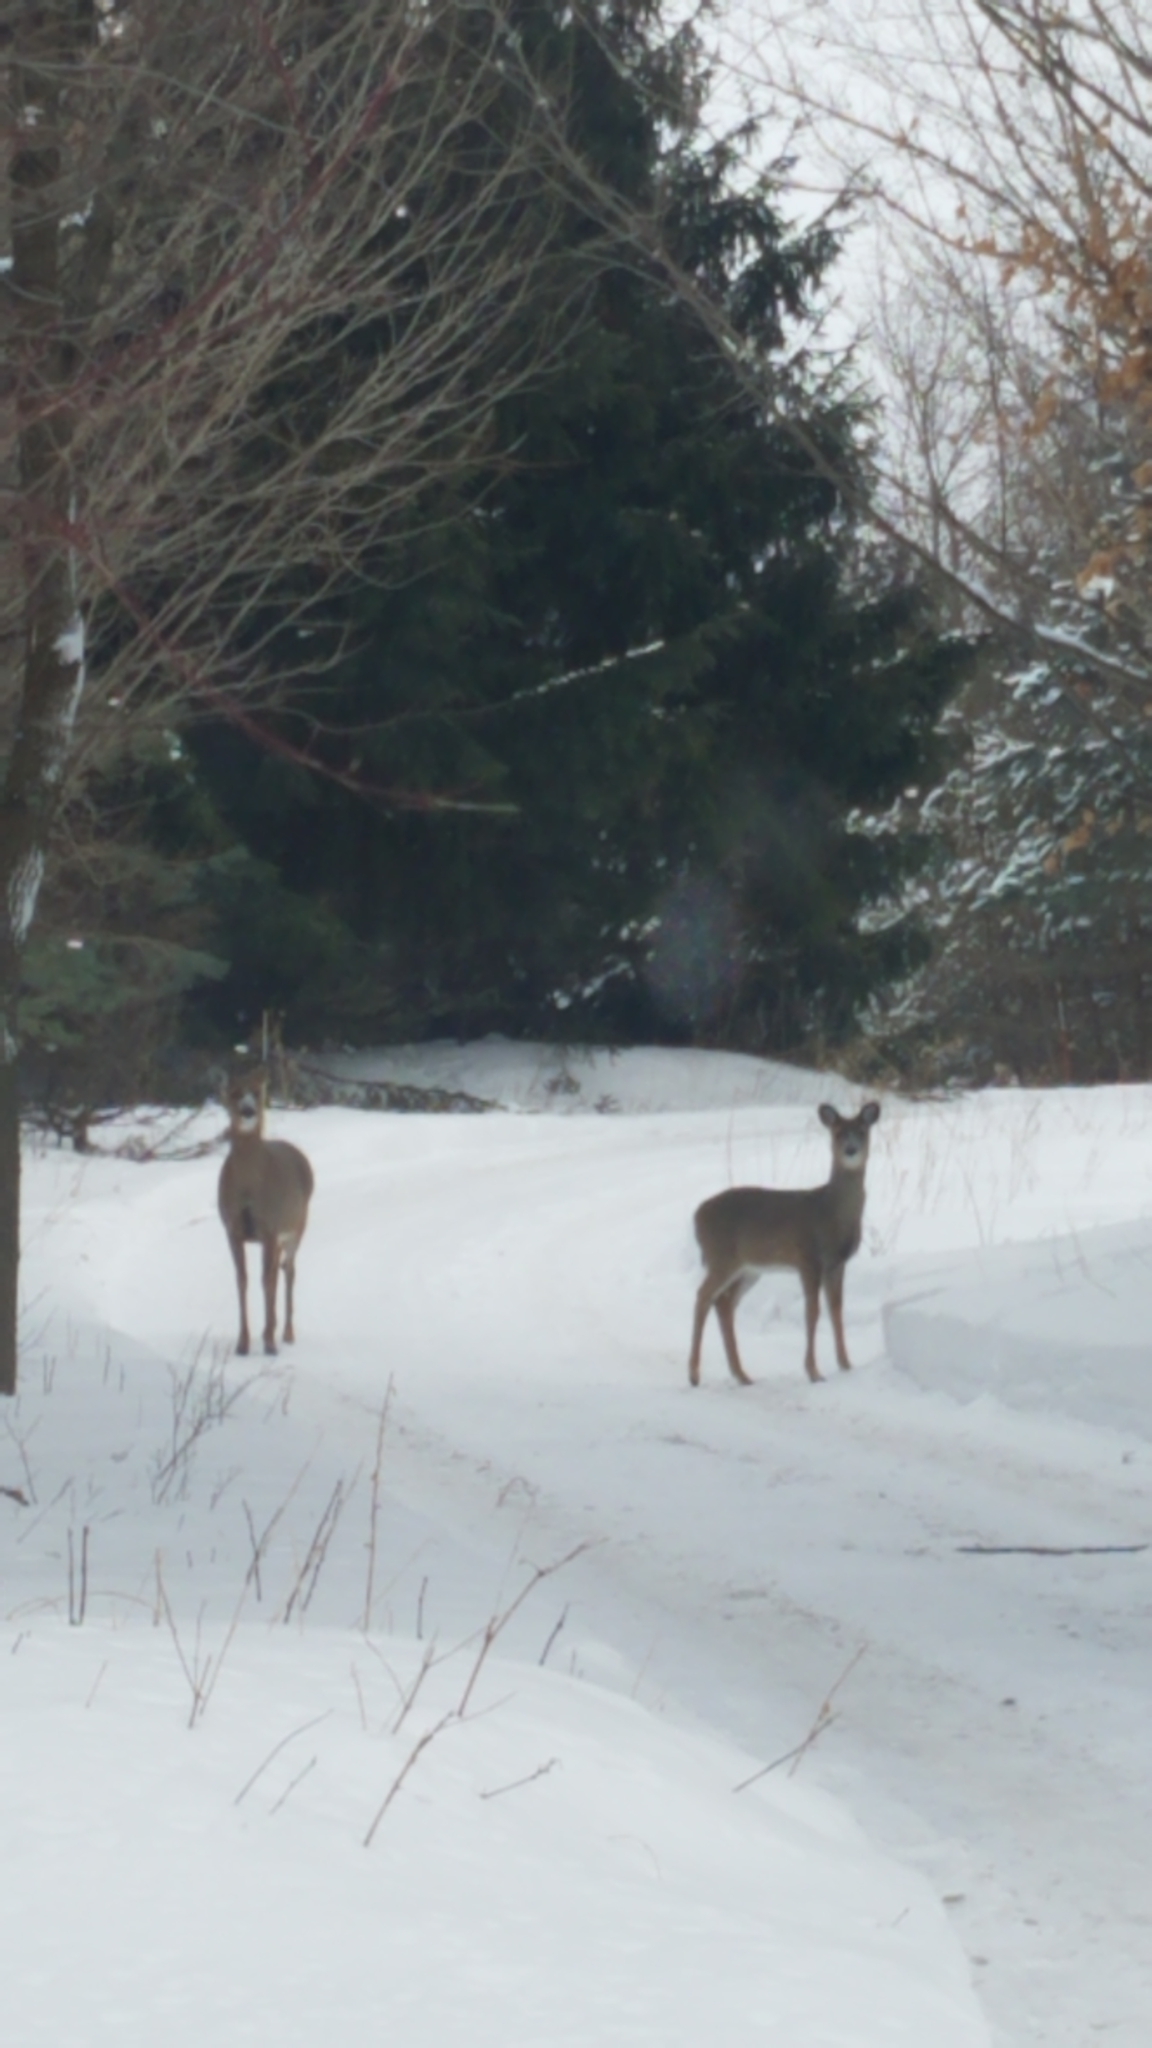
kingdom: Animalia
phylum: Chordata
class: Mammalia
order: Artiodactyla
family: Cervidae
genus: Odocoileus
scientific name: Odocoileus virginianus
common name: White-tailed deer
